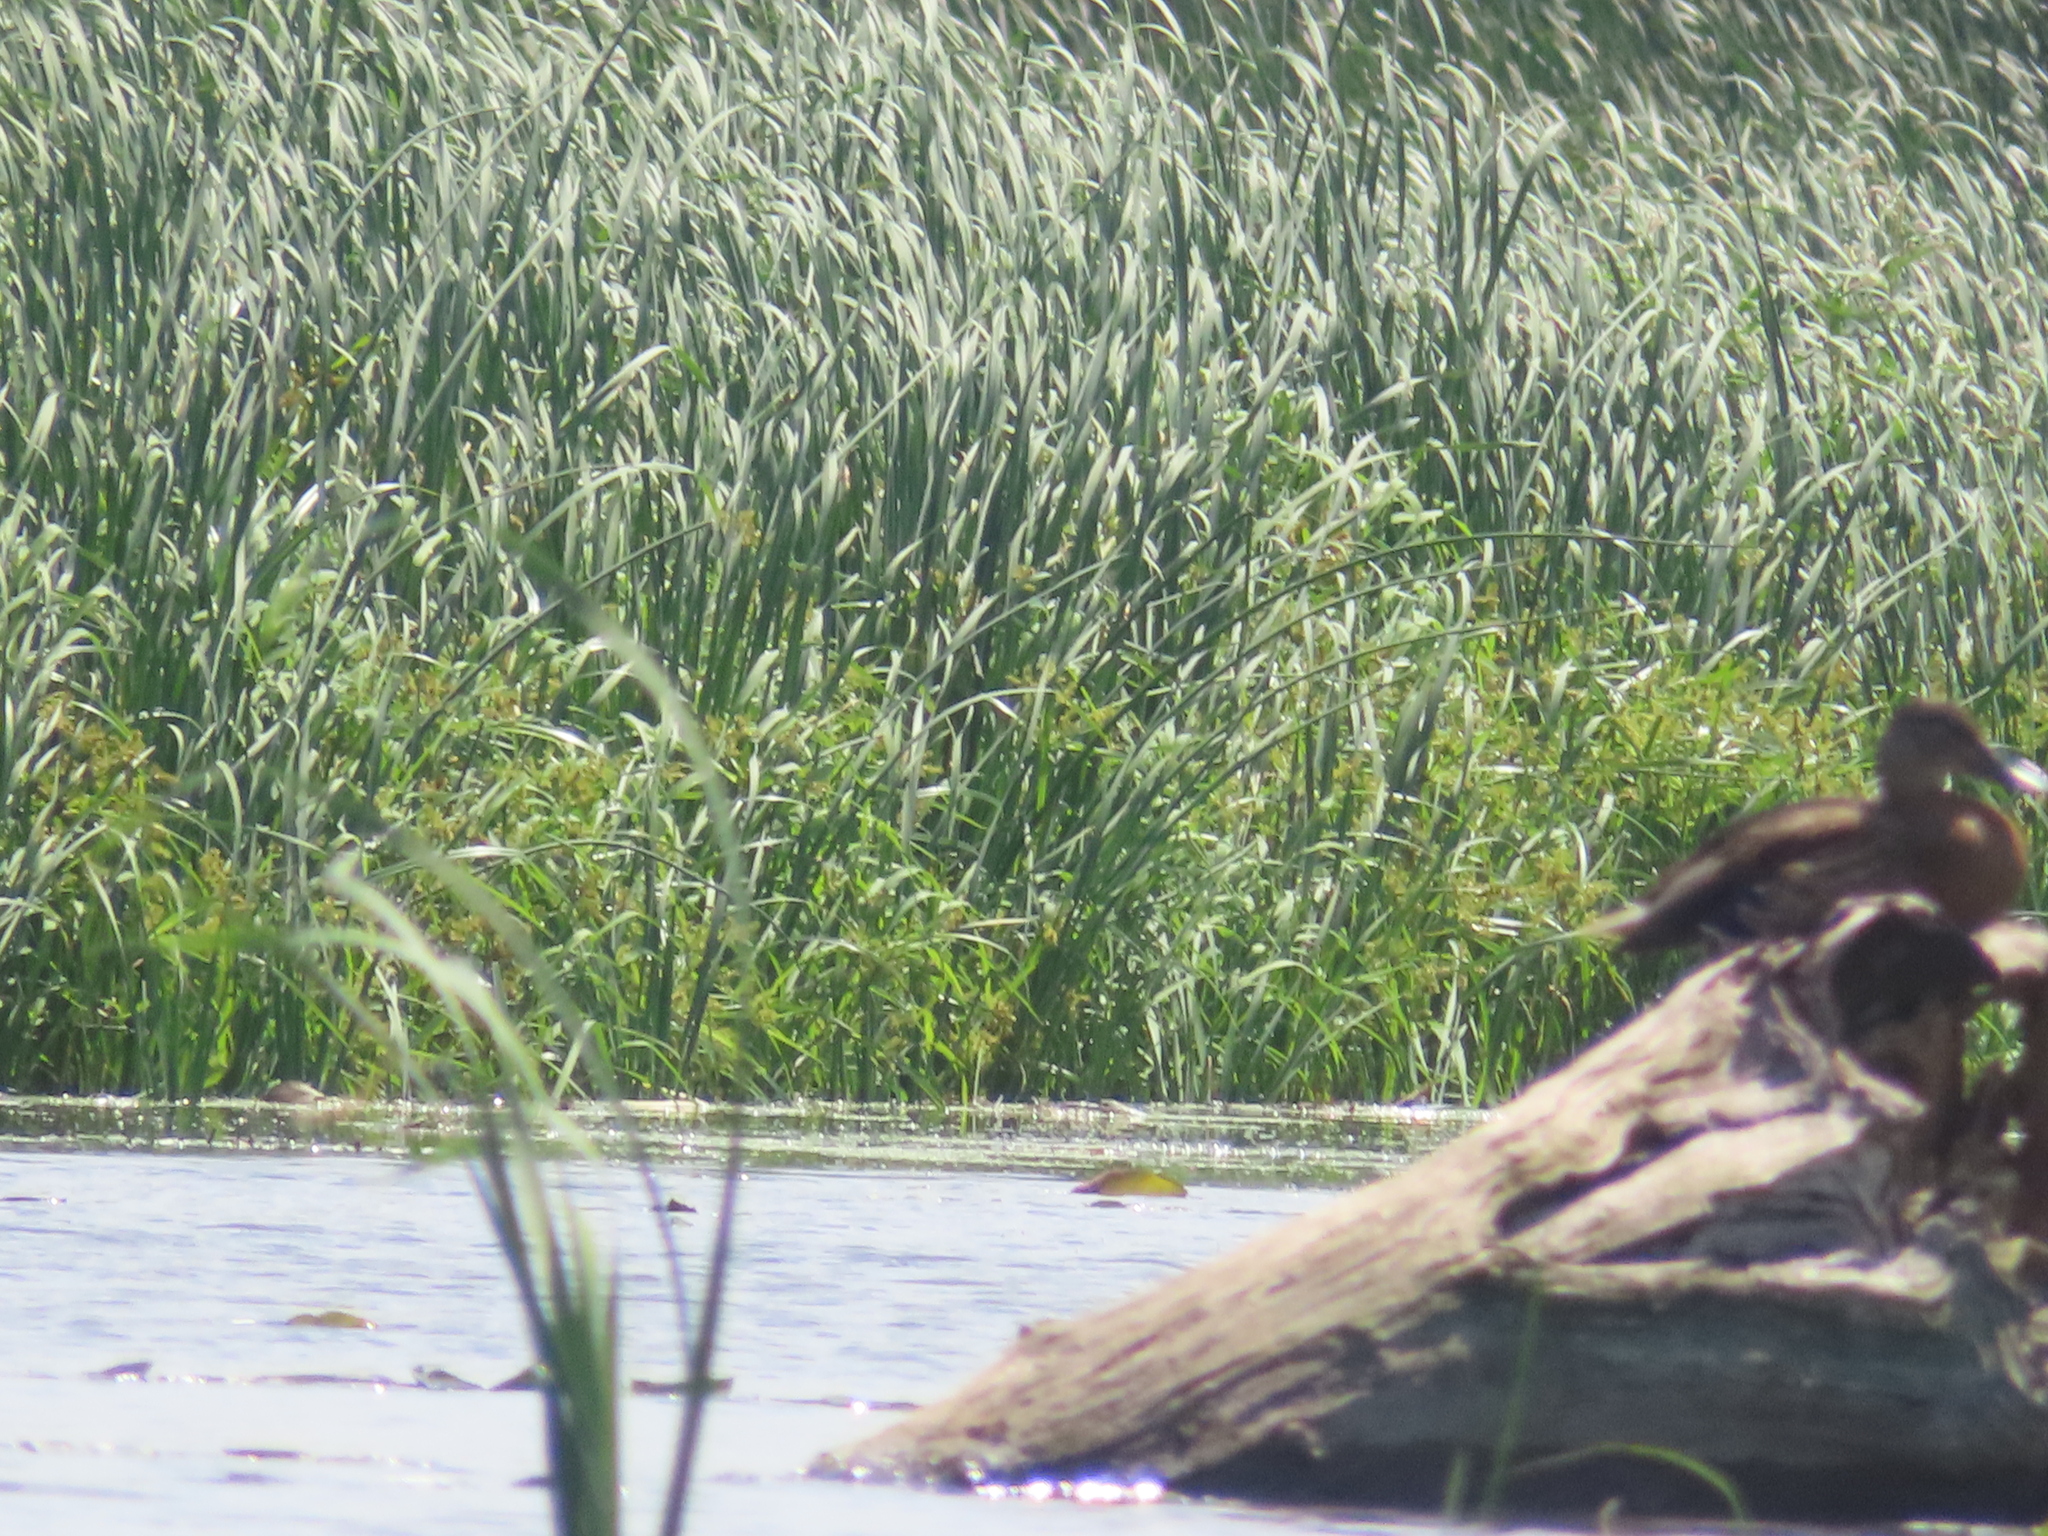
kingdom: Animalia
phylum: Chordata
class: Aves
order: Anseriformes
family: Anatidae
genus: Anas
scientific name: Anas platyrhynchos
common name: Mallard
